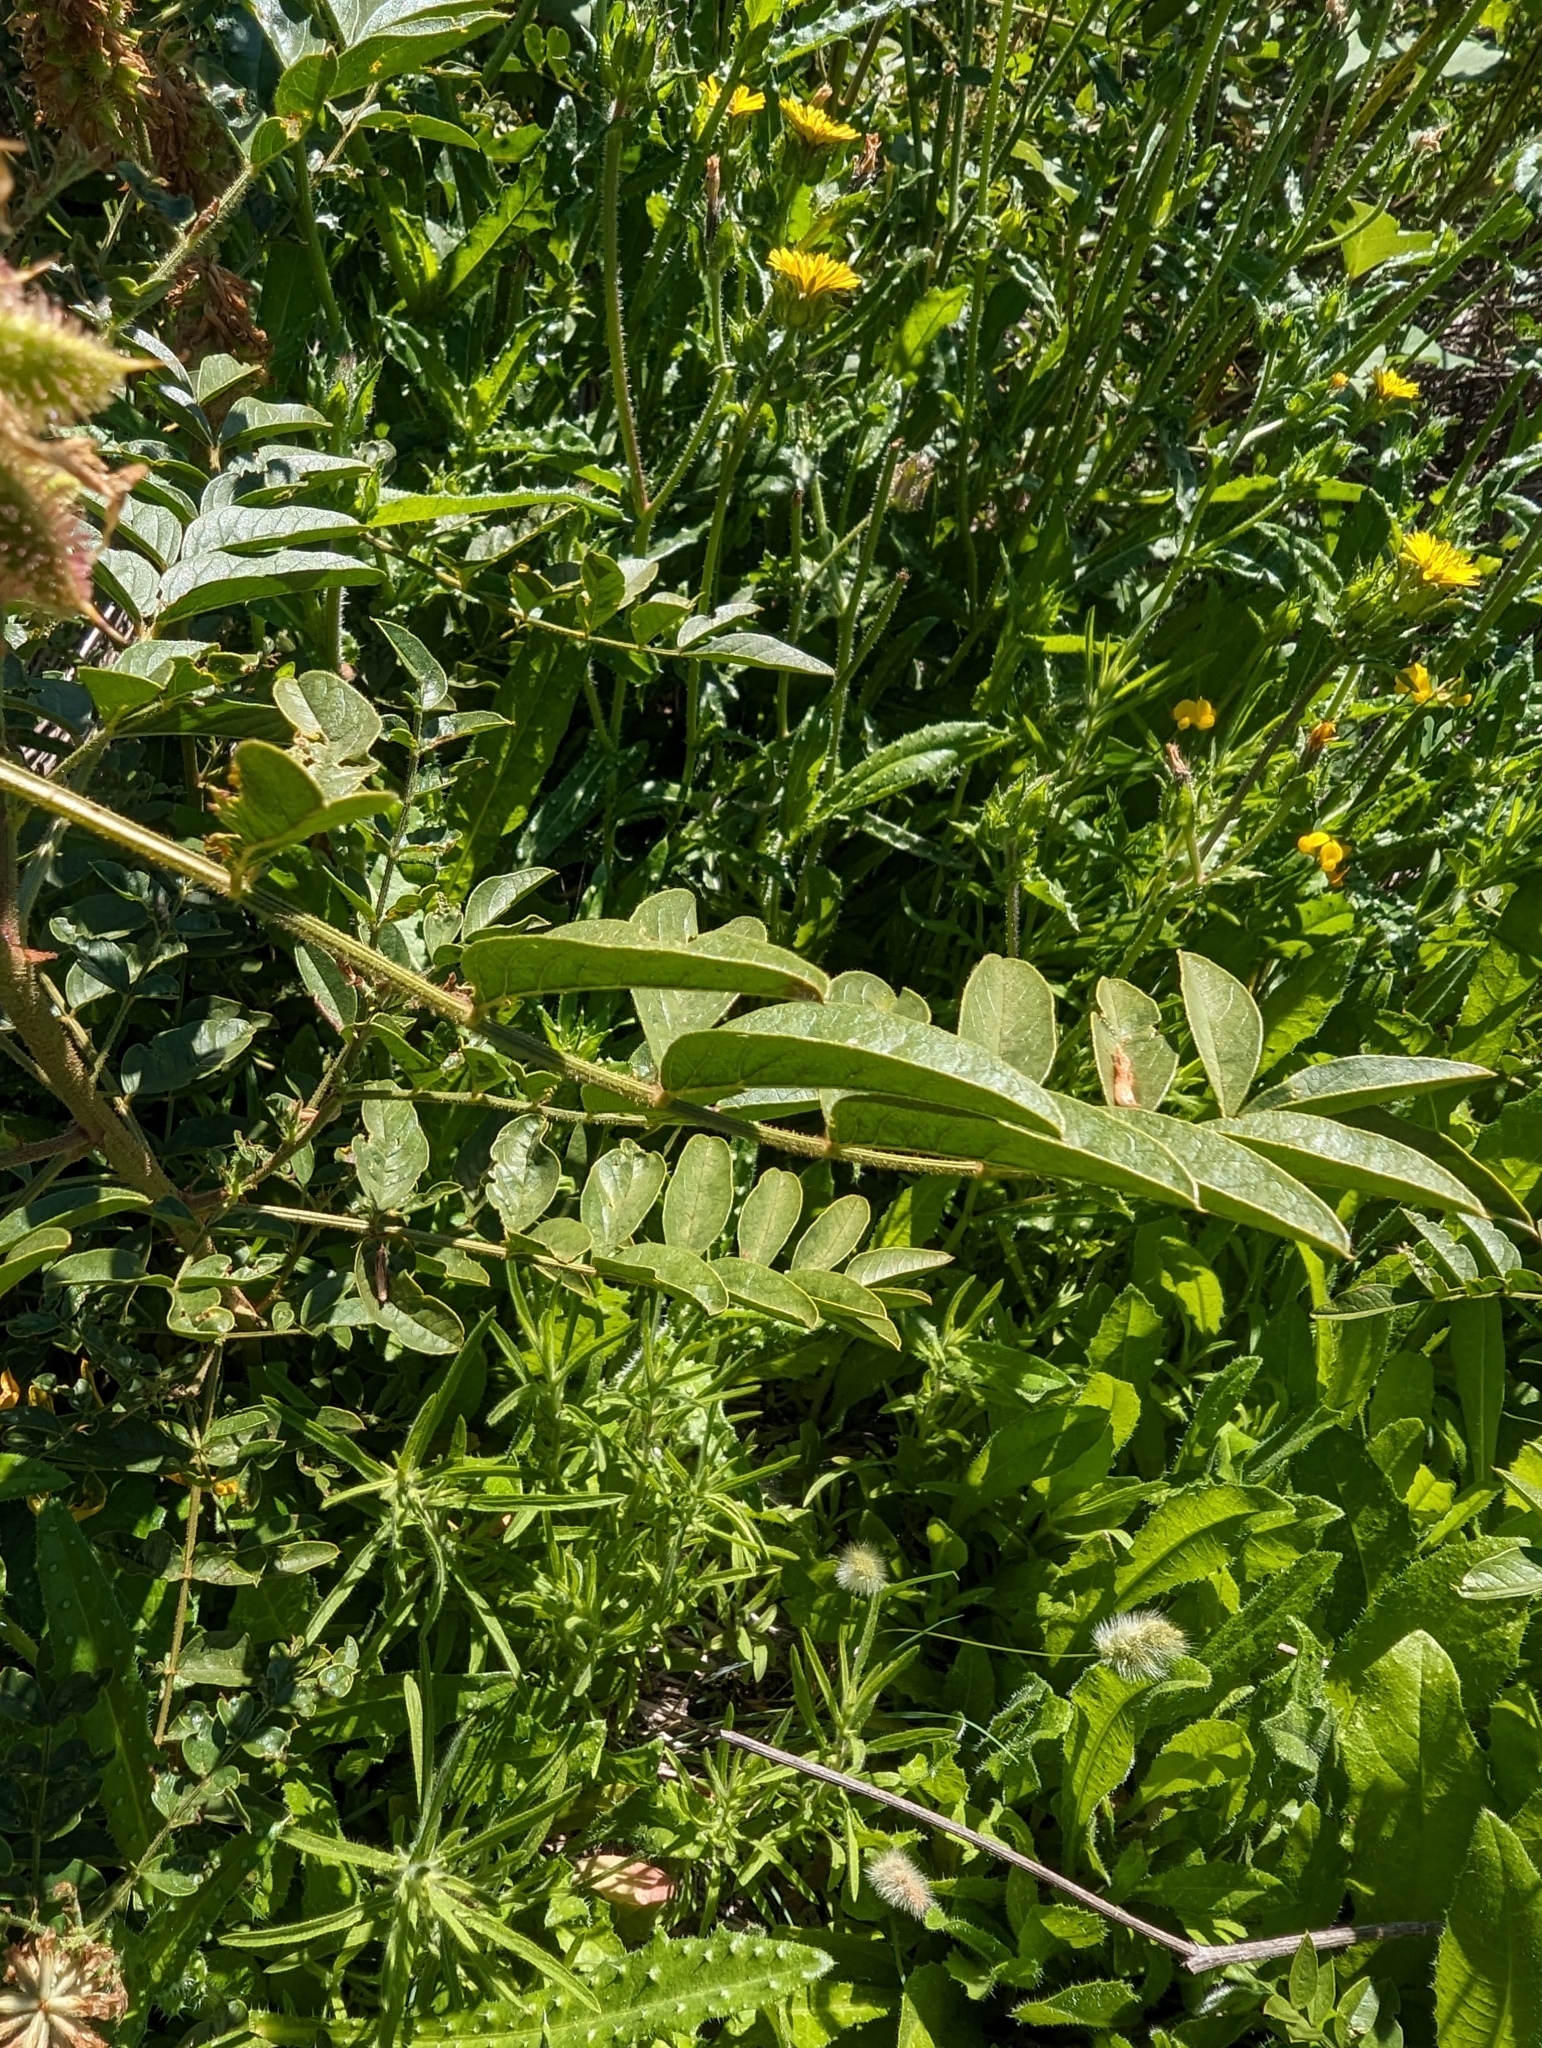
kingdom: Plantae
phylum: Tracheophyta
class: Magnoliopsida
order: Fabales
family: Fabaceae
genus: Glycyrrhiza
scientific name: Glycyrrhiza lepidota
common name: American liquorice
